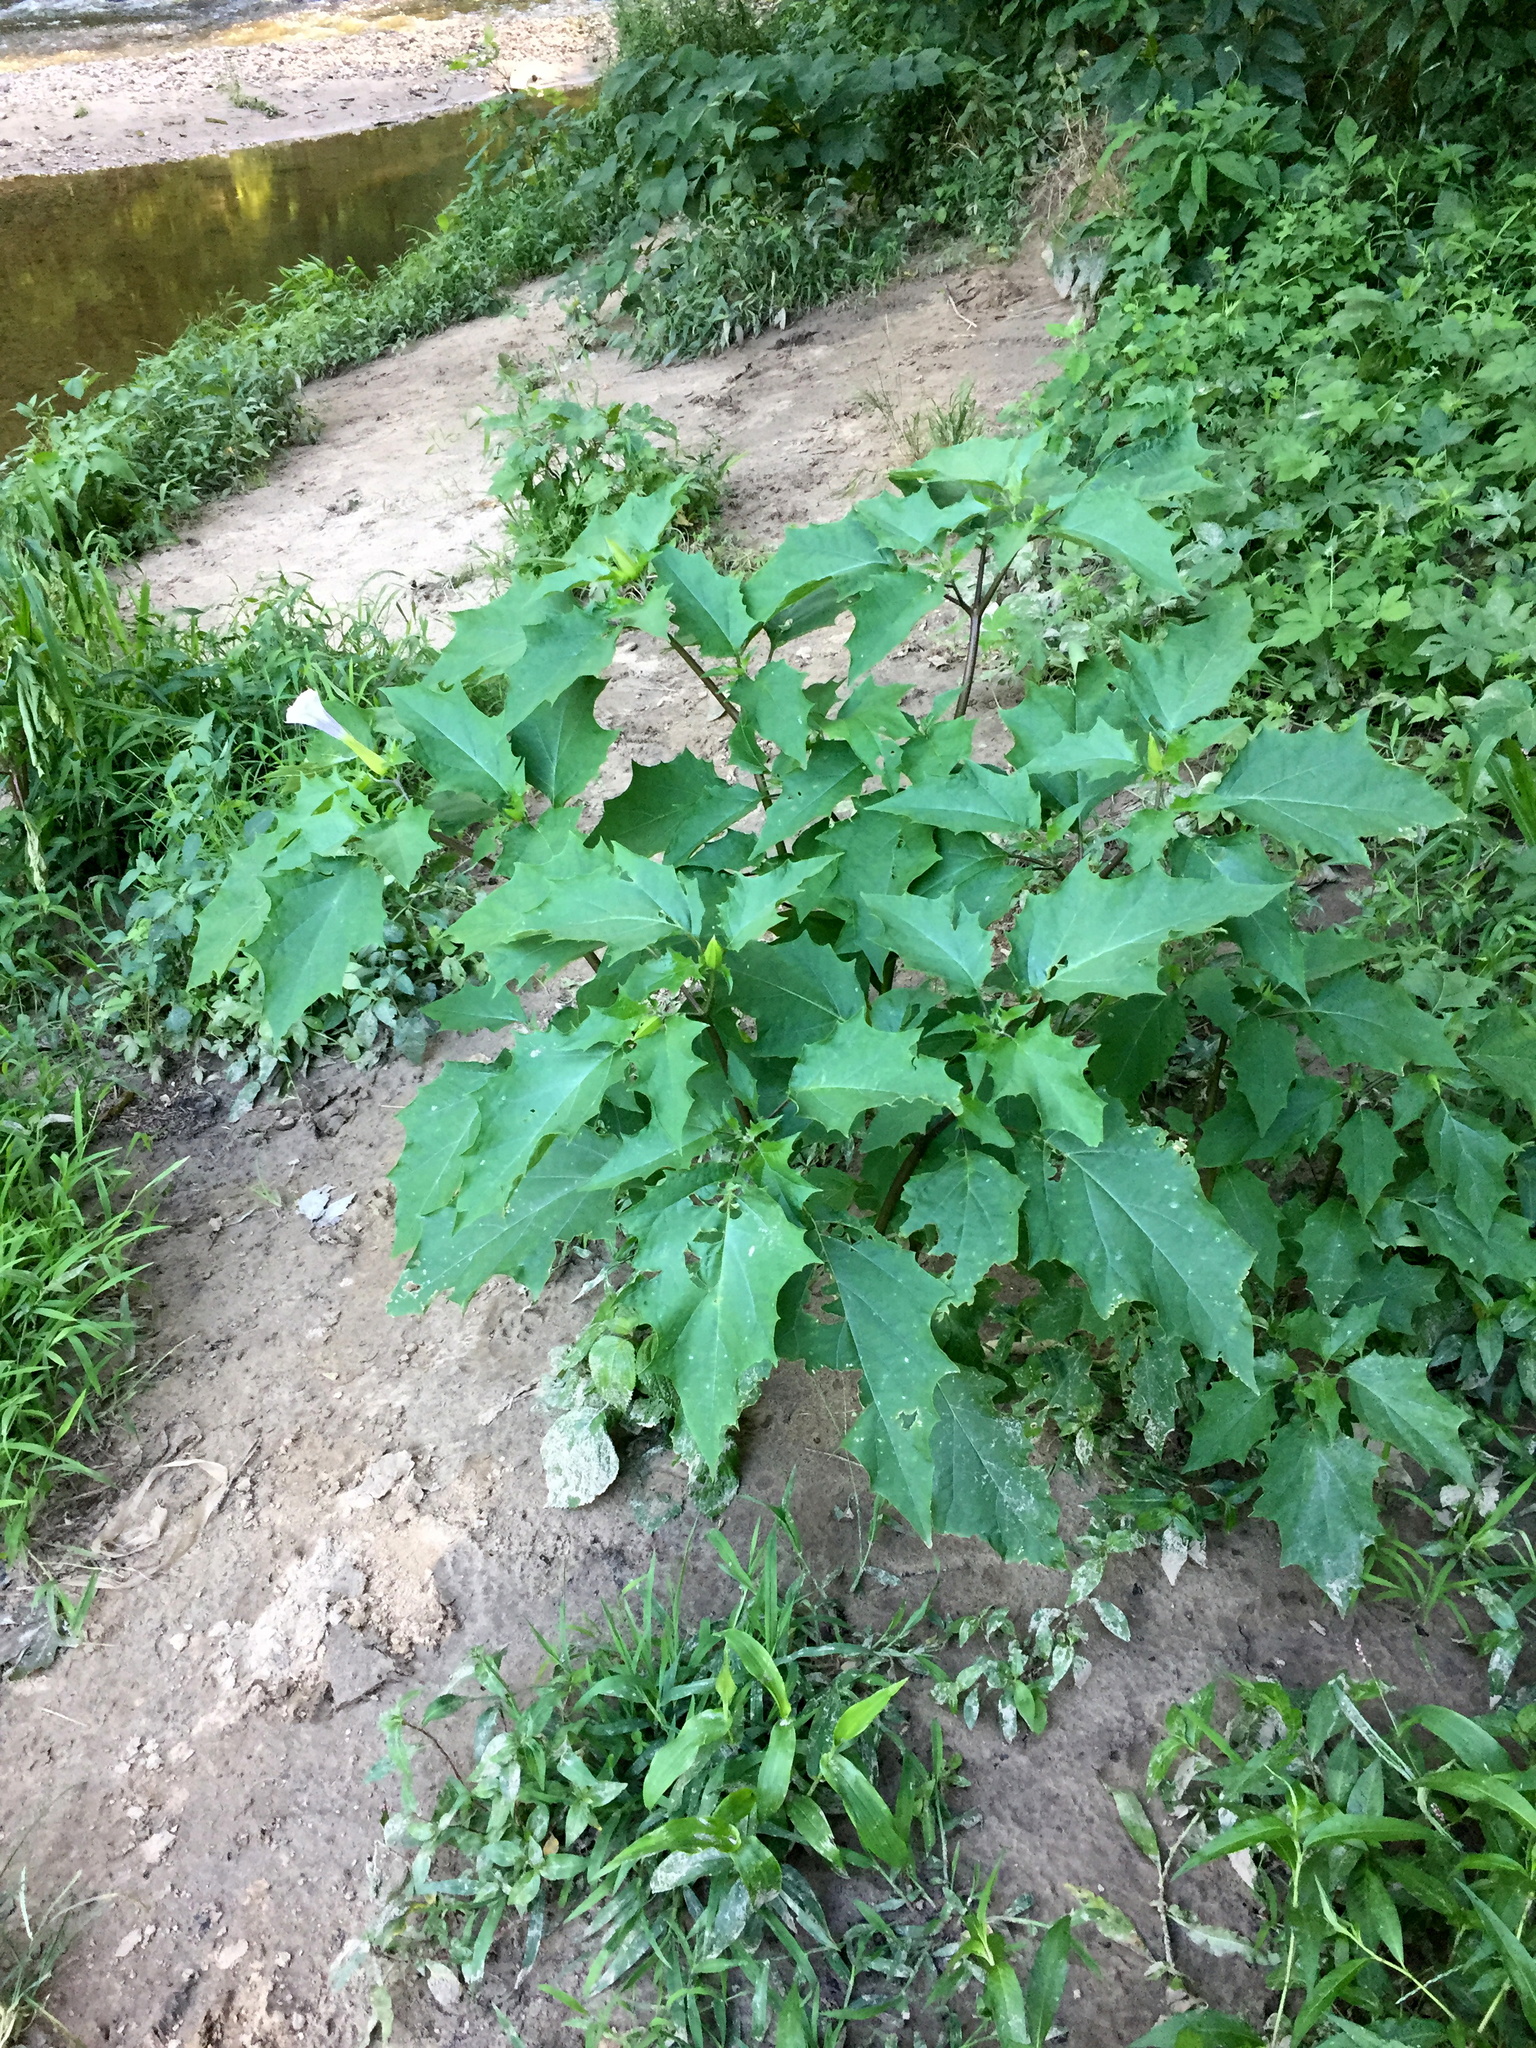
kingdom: Plantae
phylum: Tracheophyta
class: Magnoliopsida
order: Solanales
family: Solanaceae
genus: Datura
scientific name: Datura stramonium
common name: Thorn-apple
